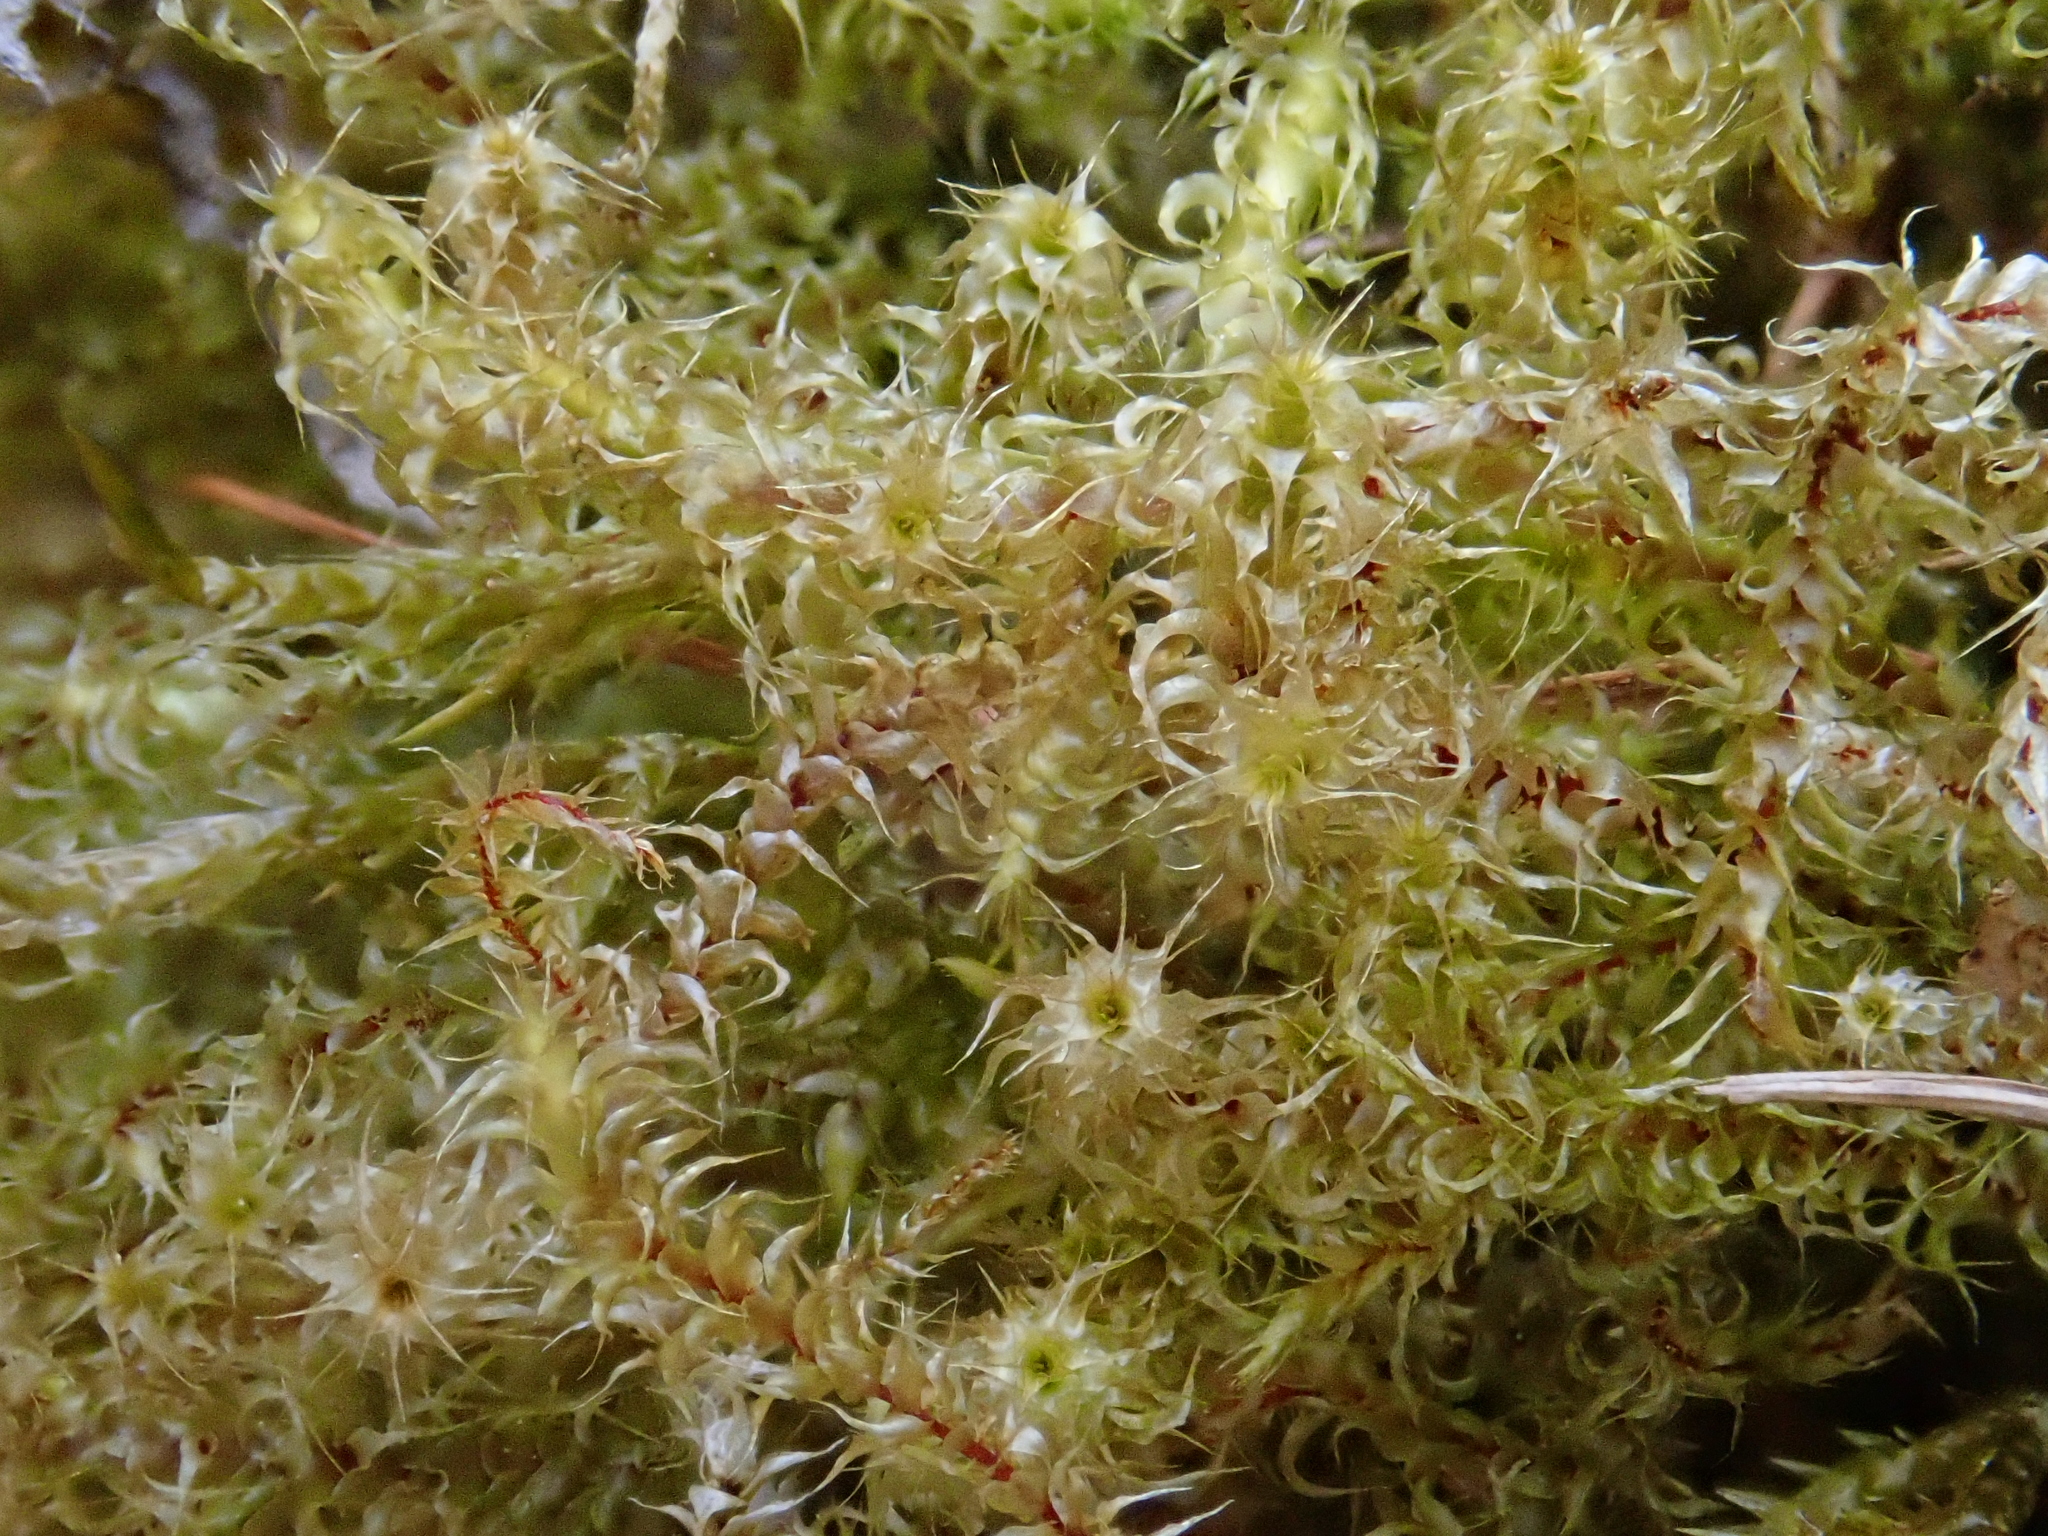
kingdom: Plantae
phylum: Bryophyta
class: Bryopsida
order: Hypnales
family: Hylocomiaceae
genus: Rhytidiadelphus
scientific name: Rhytidiadelphus squarrosus
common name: Springy turf-moss
